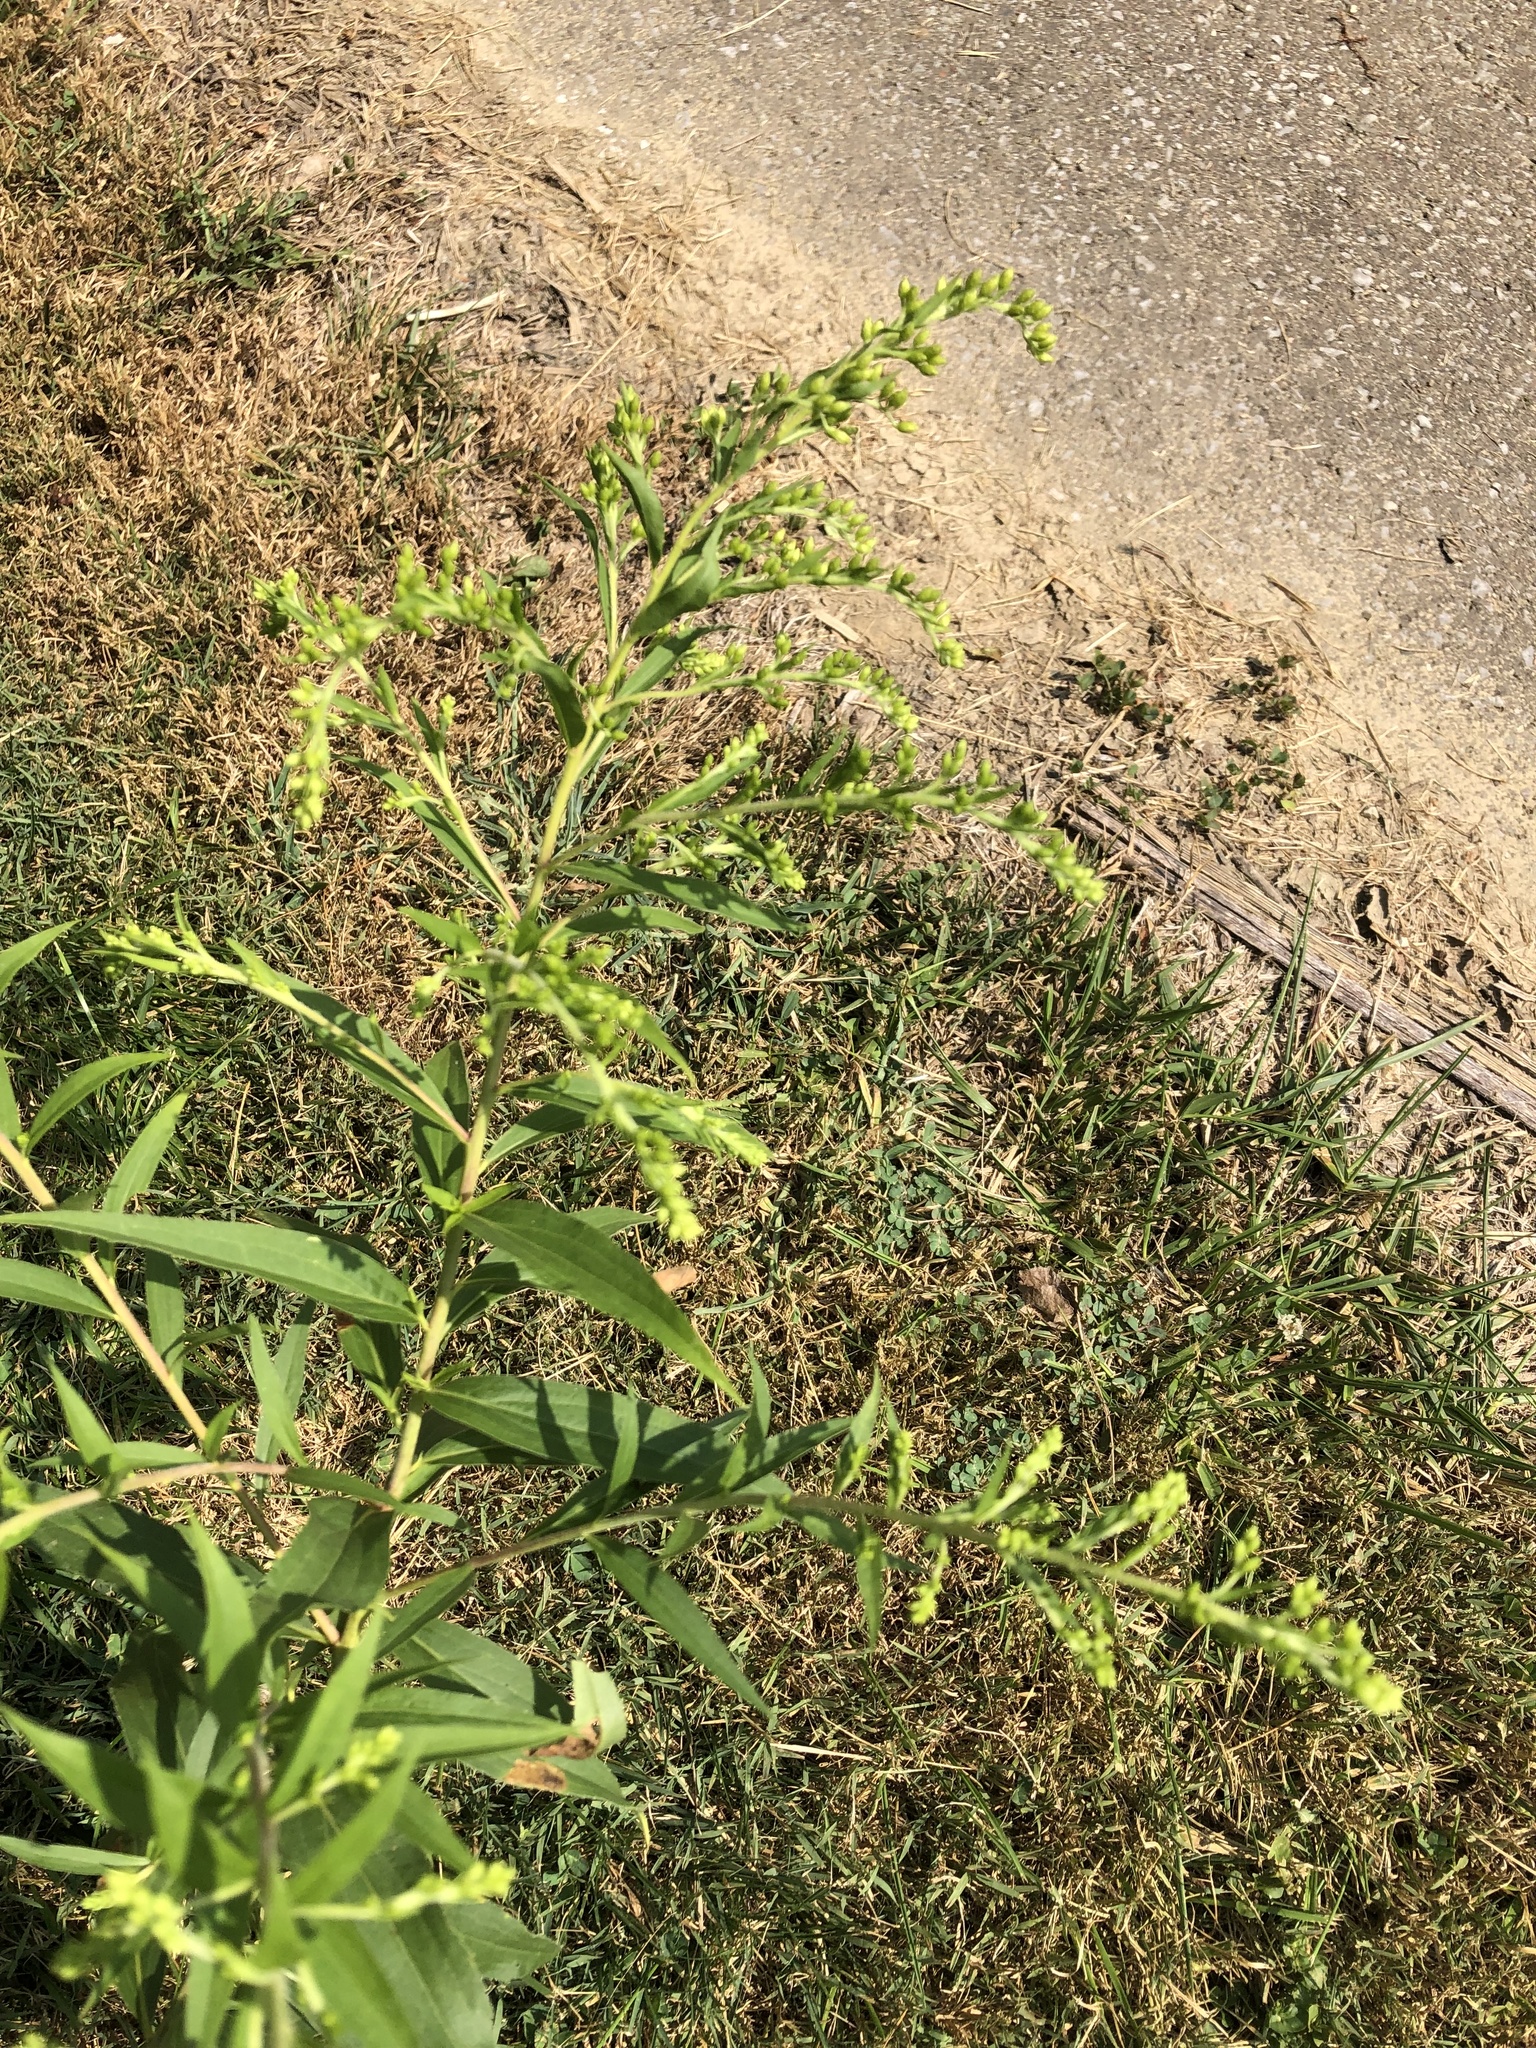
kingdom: Plantae
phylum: Tracheophyta
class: Magnoliopsida
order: Asterales
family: Asteraceae
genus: Solidago
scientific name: Solidago gigantea
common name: Giant goldenrod
